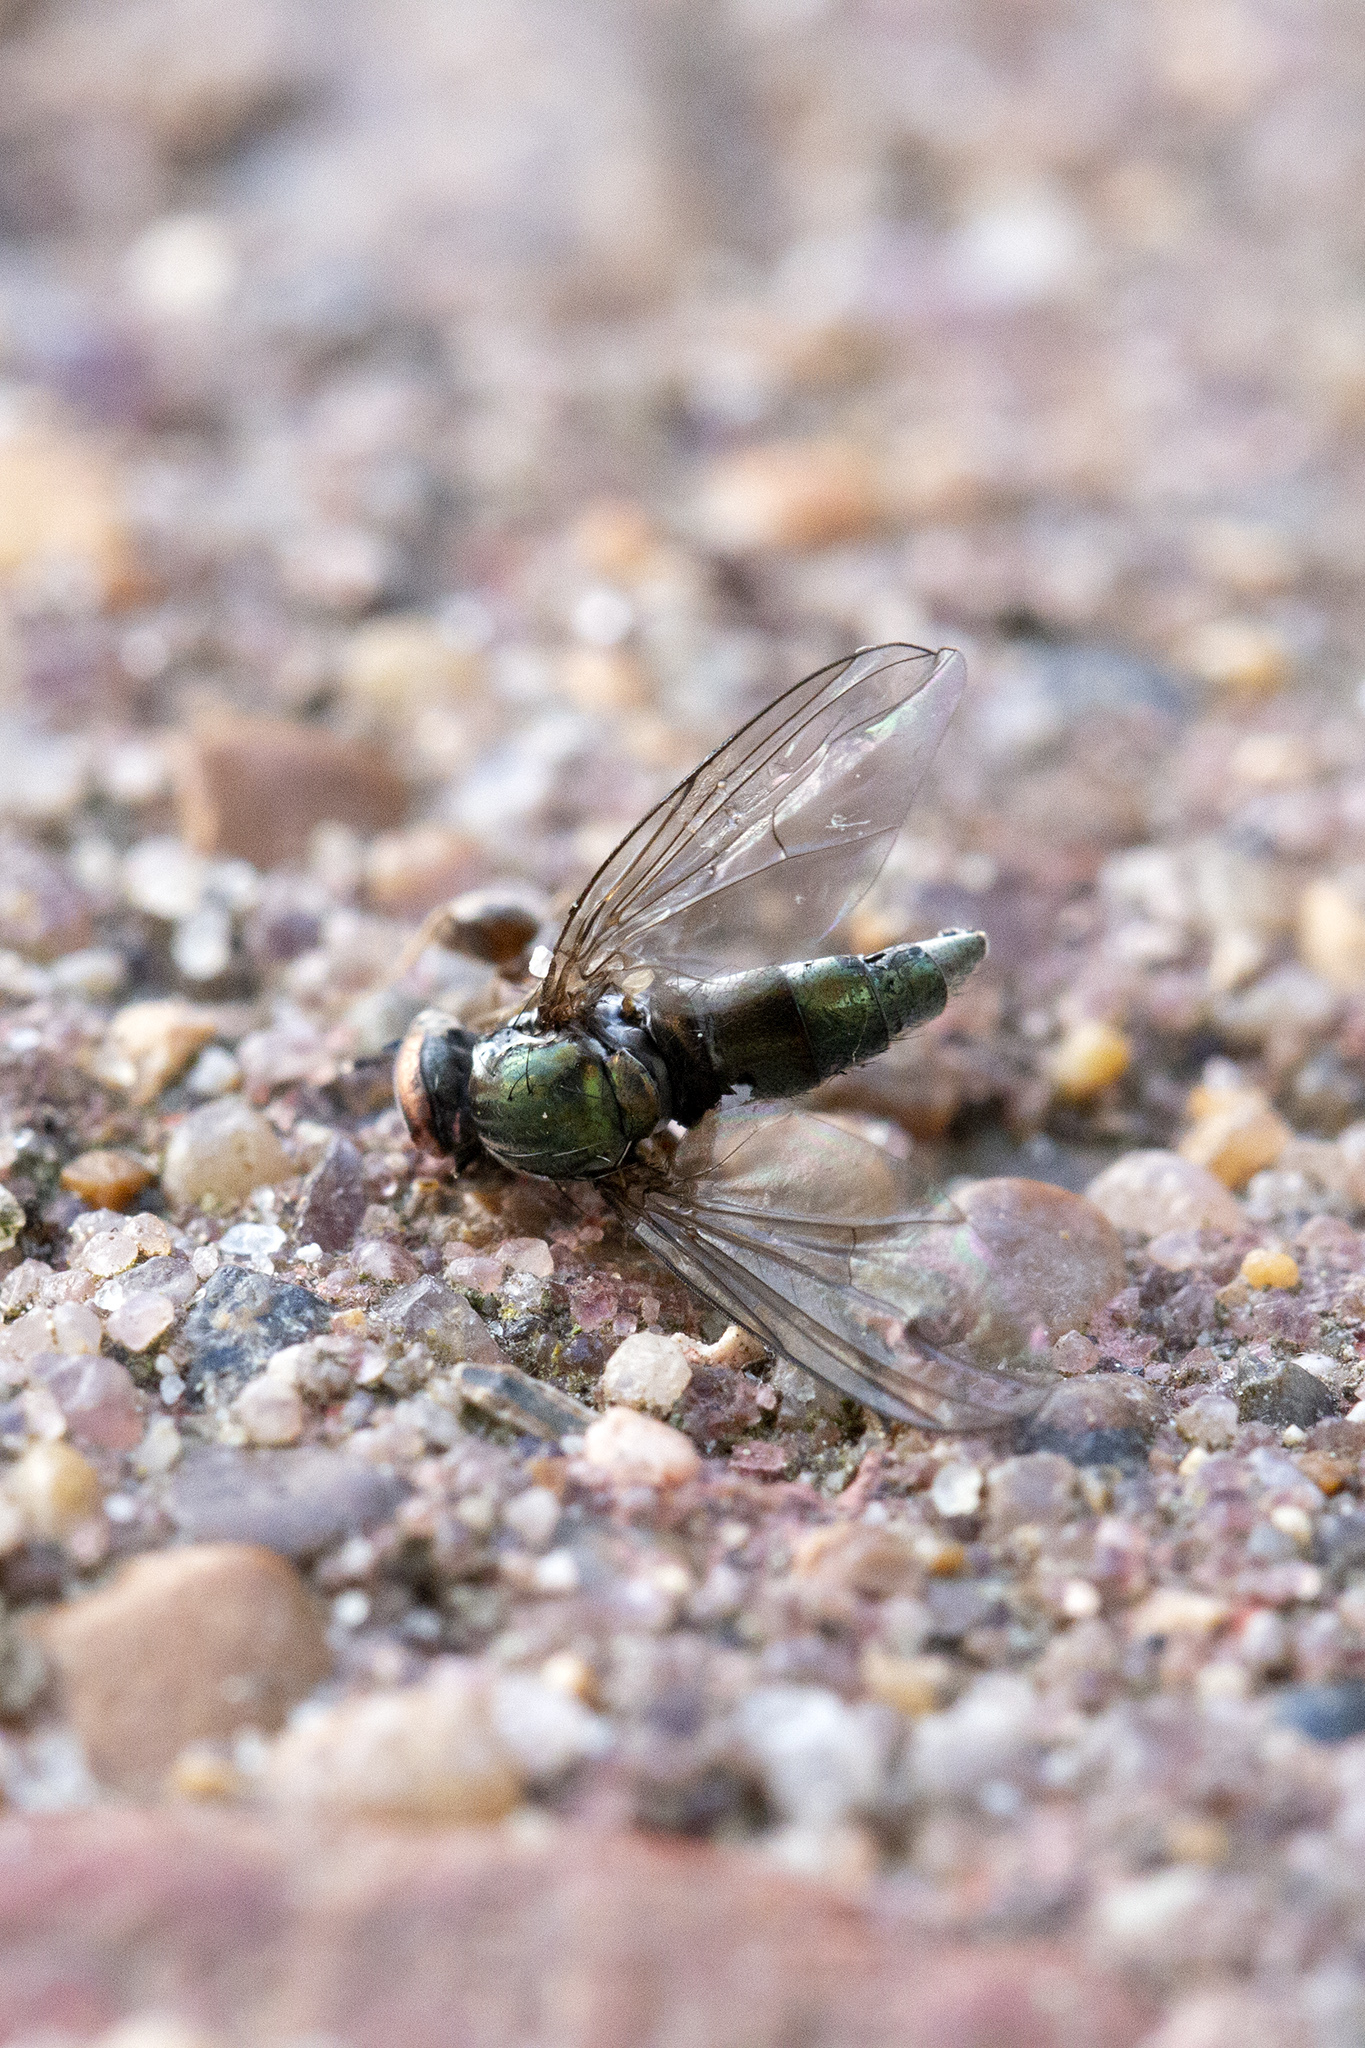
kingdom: Animalia
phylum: Arthropoda
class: Insecta
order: Hymenoptera
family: Formicidae
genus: Lasius
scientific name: Lasius niger
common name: Small black ant
